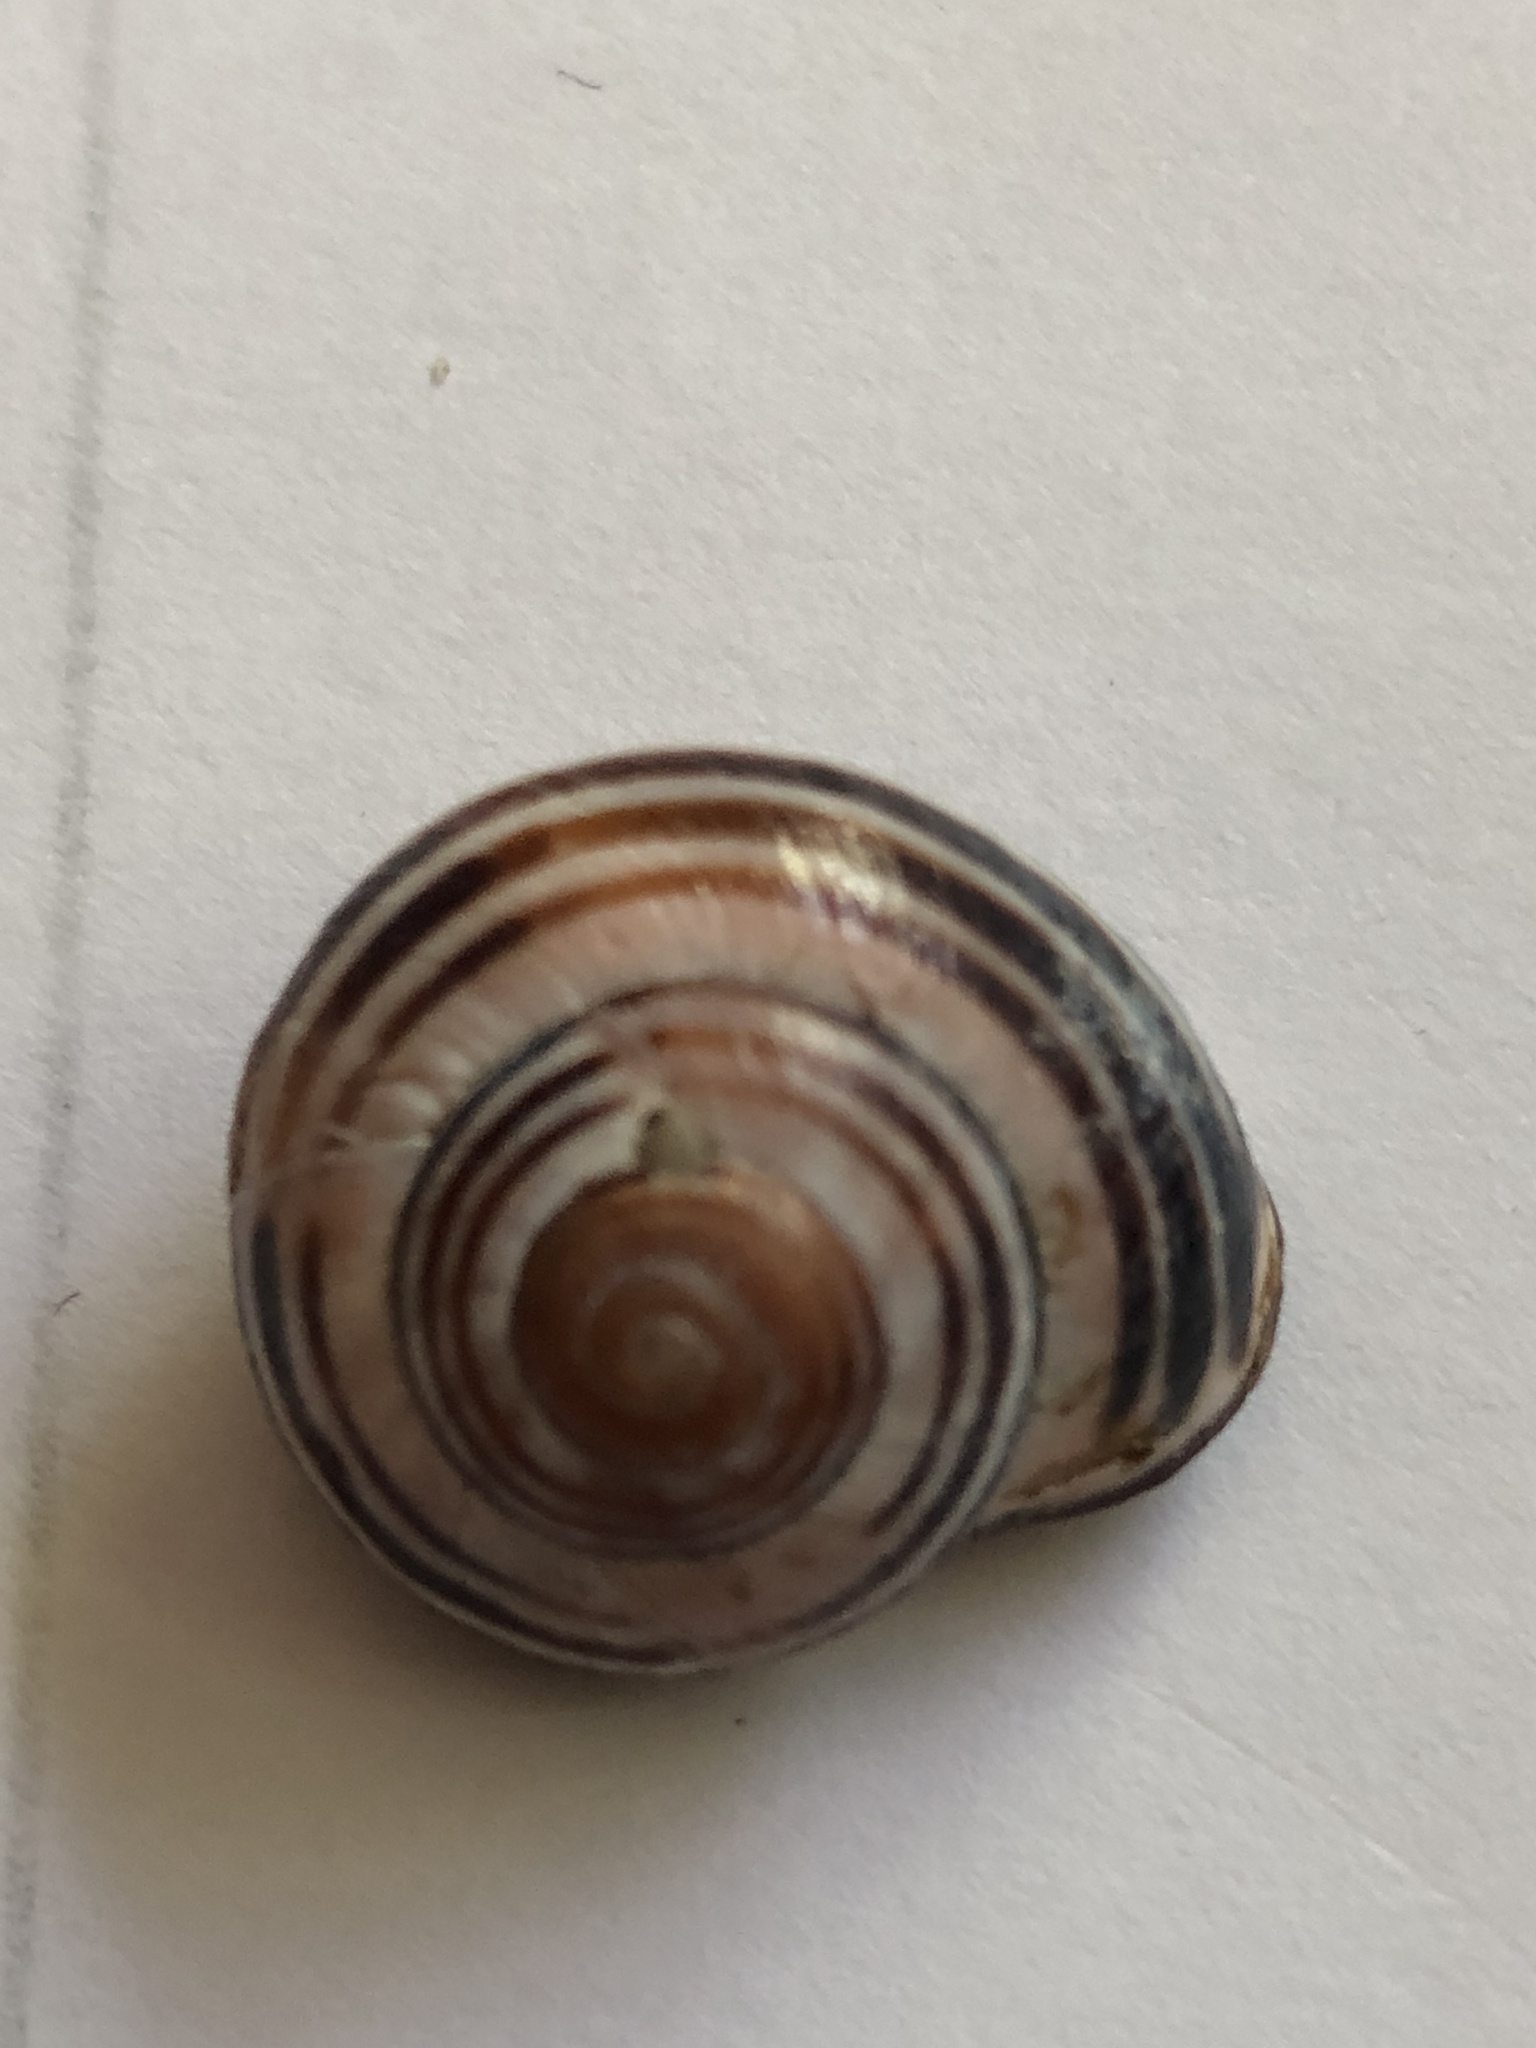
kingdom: Animalia
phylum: Mollusca
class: Gastropoda
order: Stylommatophora
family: Helicidae
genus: Cepaea
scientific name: Cepaea nemoralis
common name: Grovesnail
